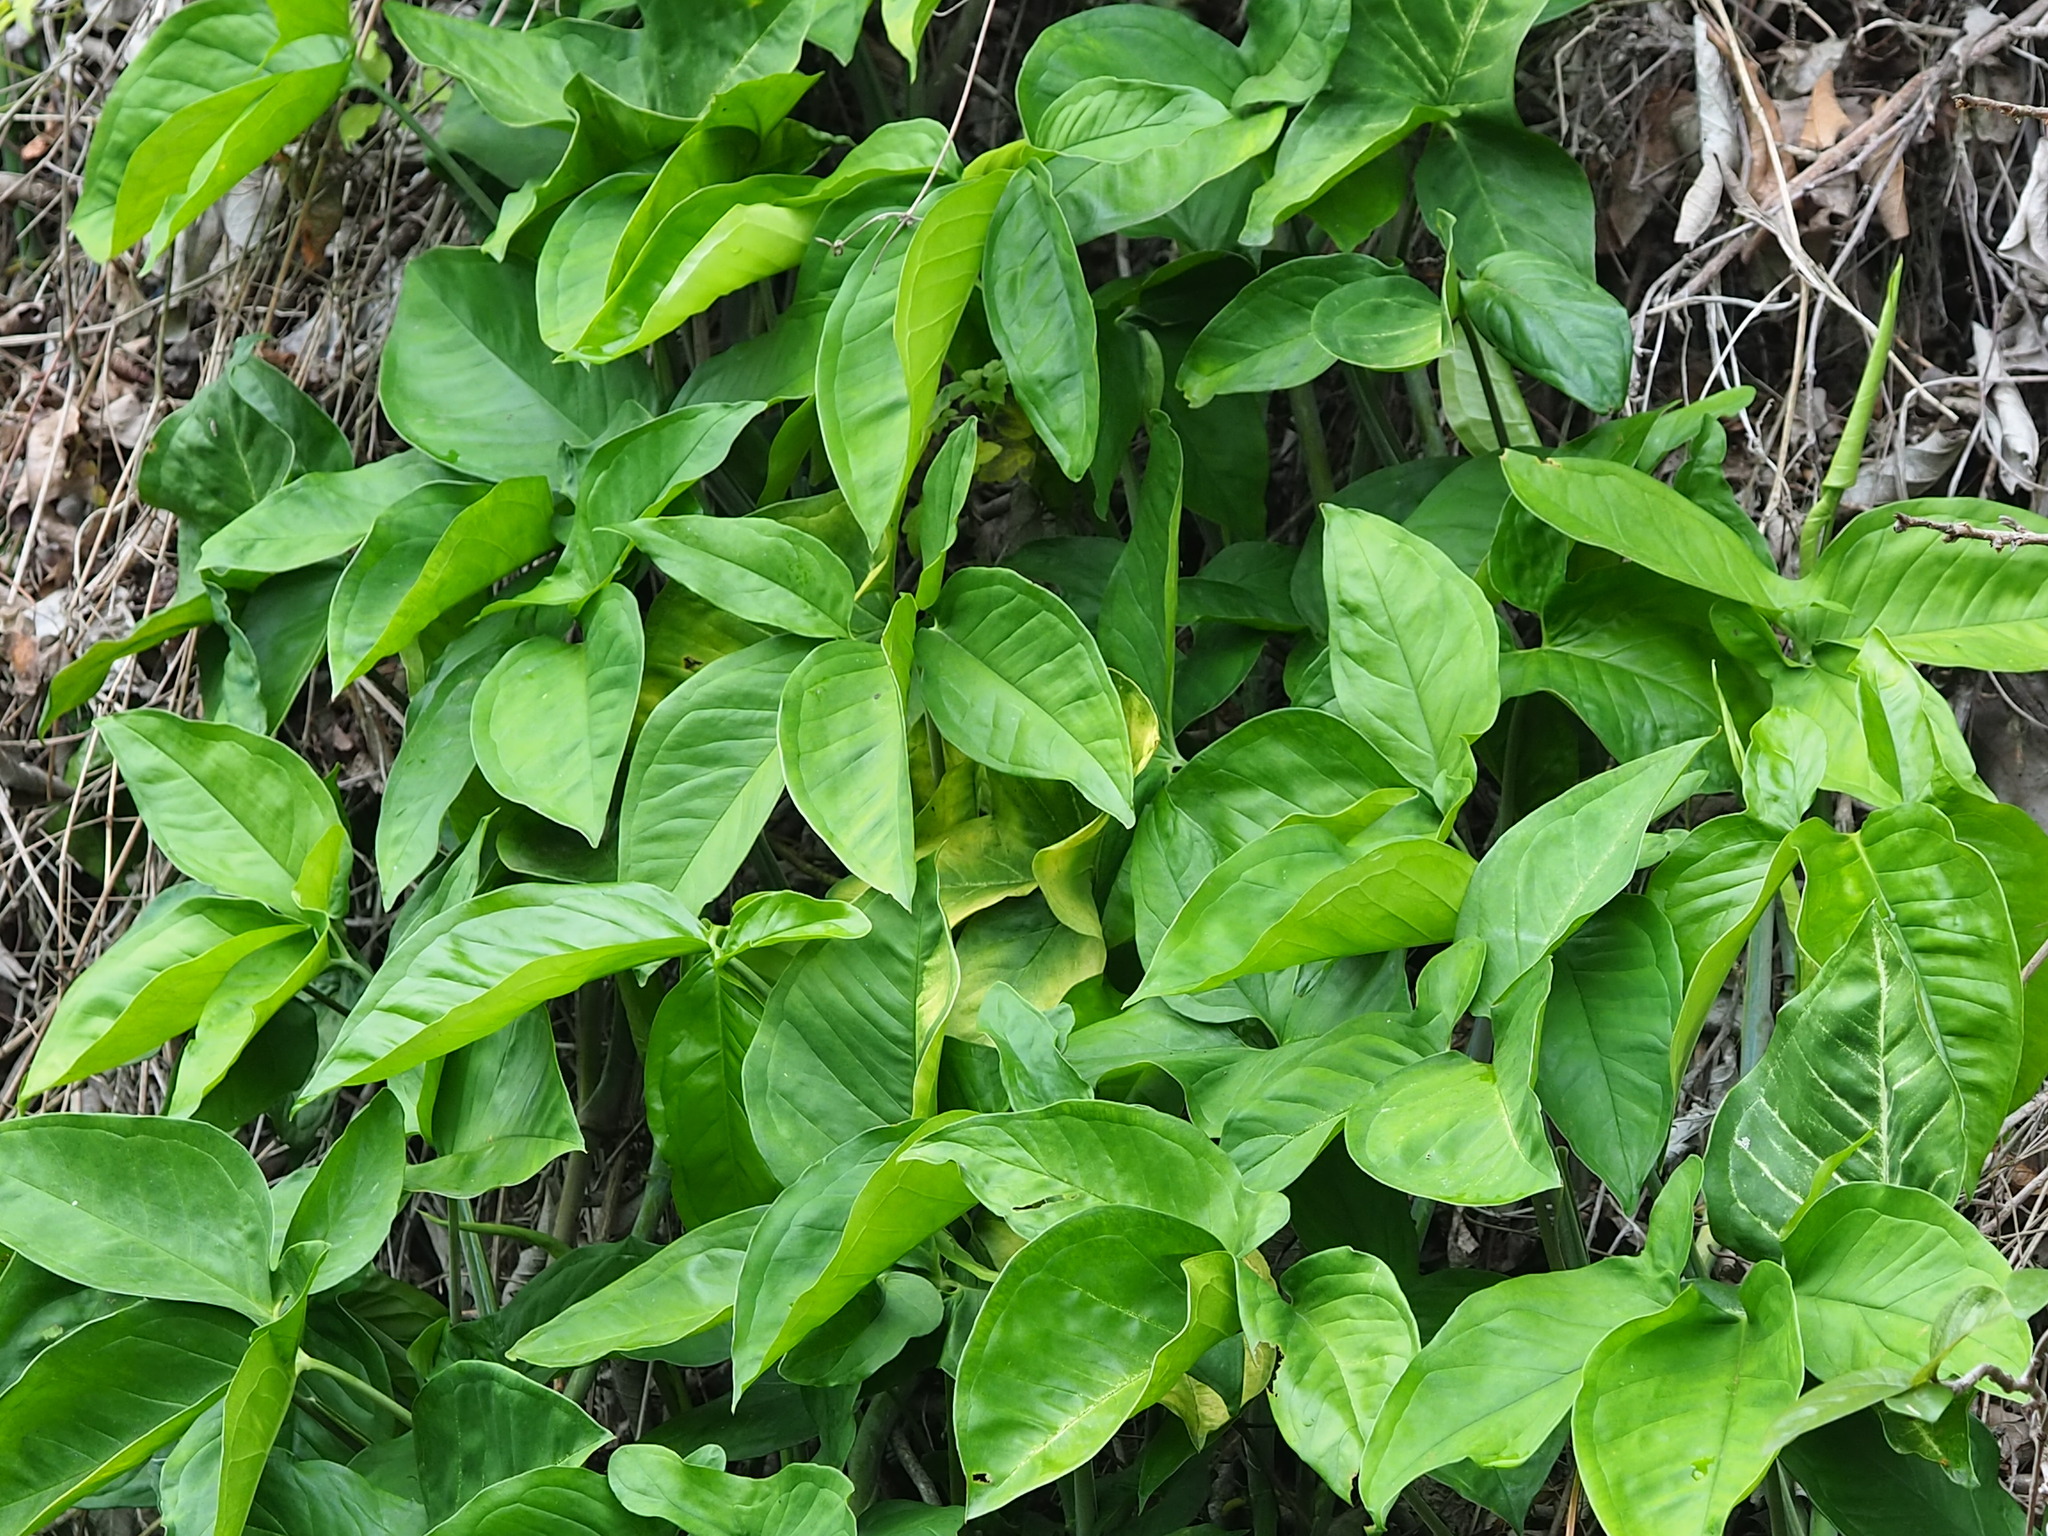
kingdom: Plantae
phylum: Tracheophyta
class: Liliopsida
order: Alismatales
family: Araceae
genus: Syngonium
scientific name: Syngonium angustatum
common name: Fivefingers
